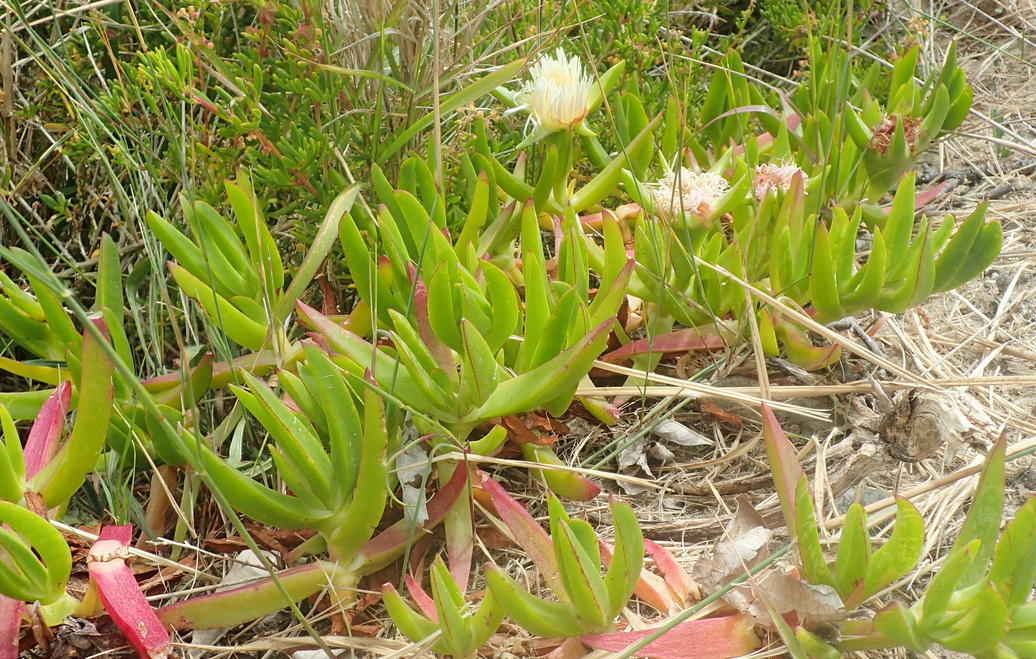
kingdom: Plantae
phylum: Tracheophyta
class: Magnoliopsida
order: Caryophyllales
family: Aizoaceae
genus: Carpobrotus
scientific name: Carpobrotus edulis
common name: Hottentot-fig
